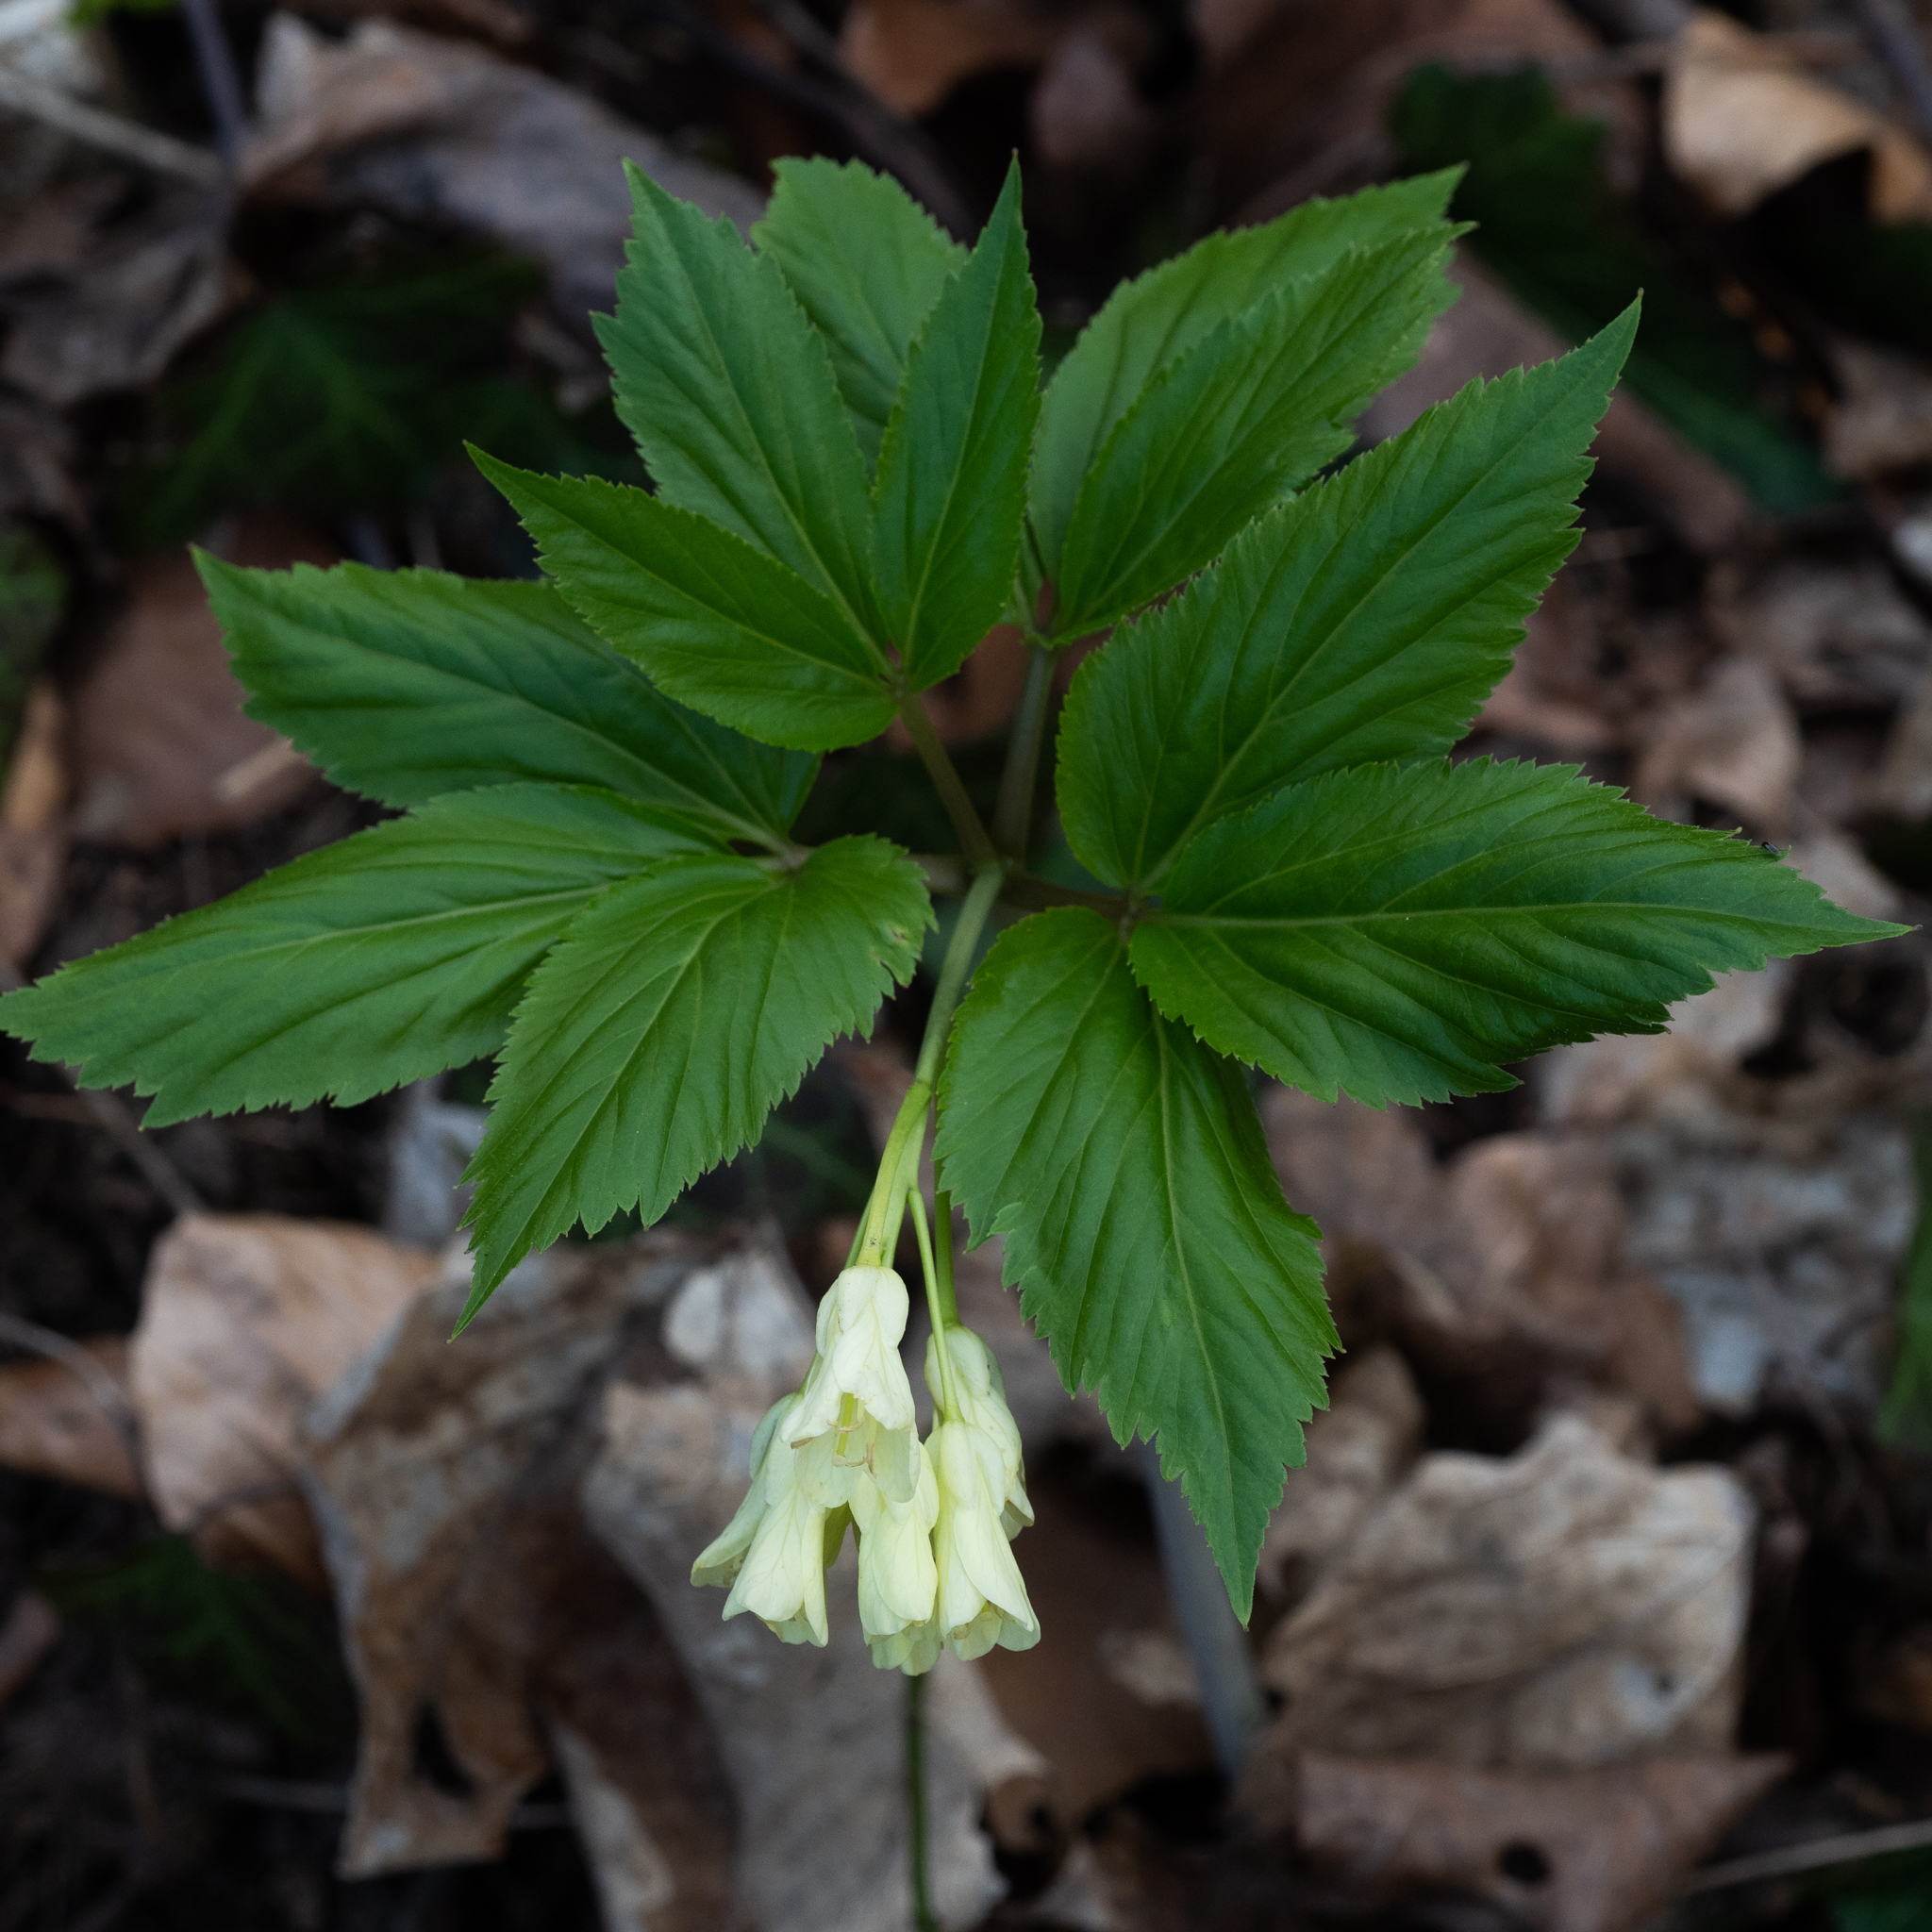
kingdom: Plantae
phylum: Tracheophyta
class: Magnoliopsida
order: Brassicales
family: Brassicaceae
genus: Cardamine
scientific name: Cardamine enneaphyllos
